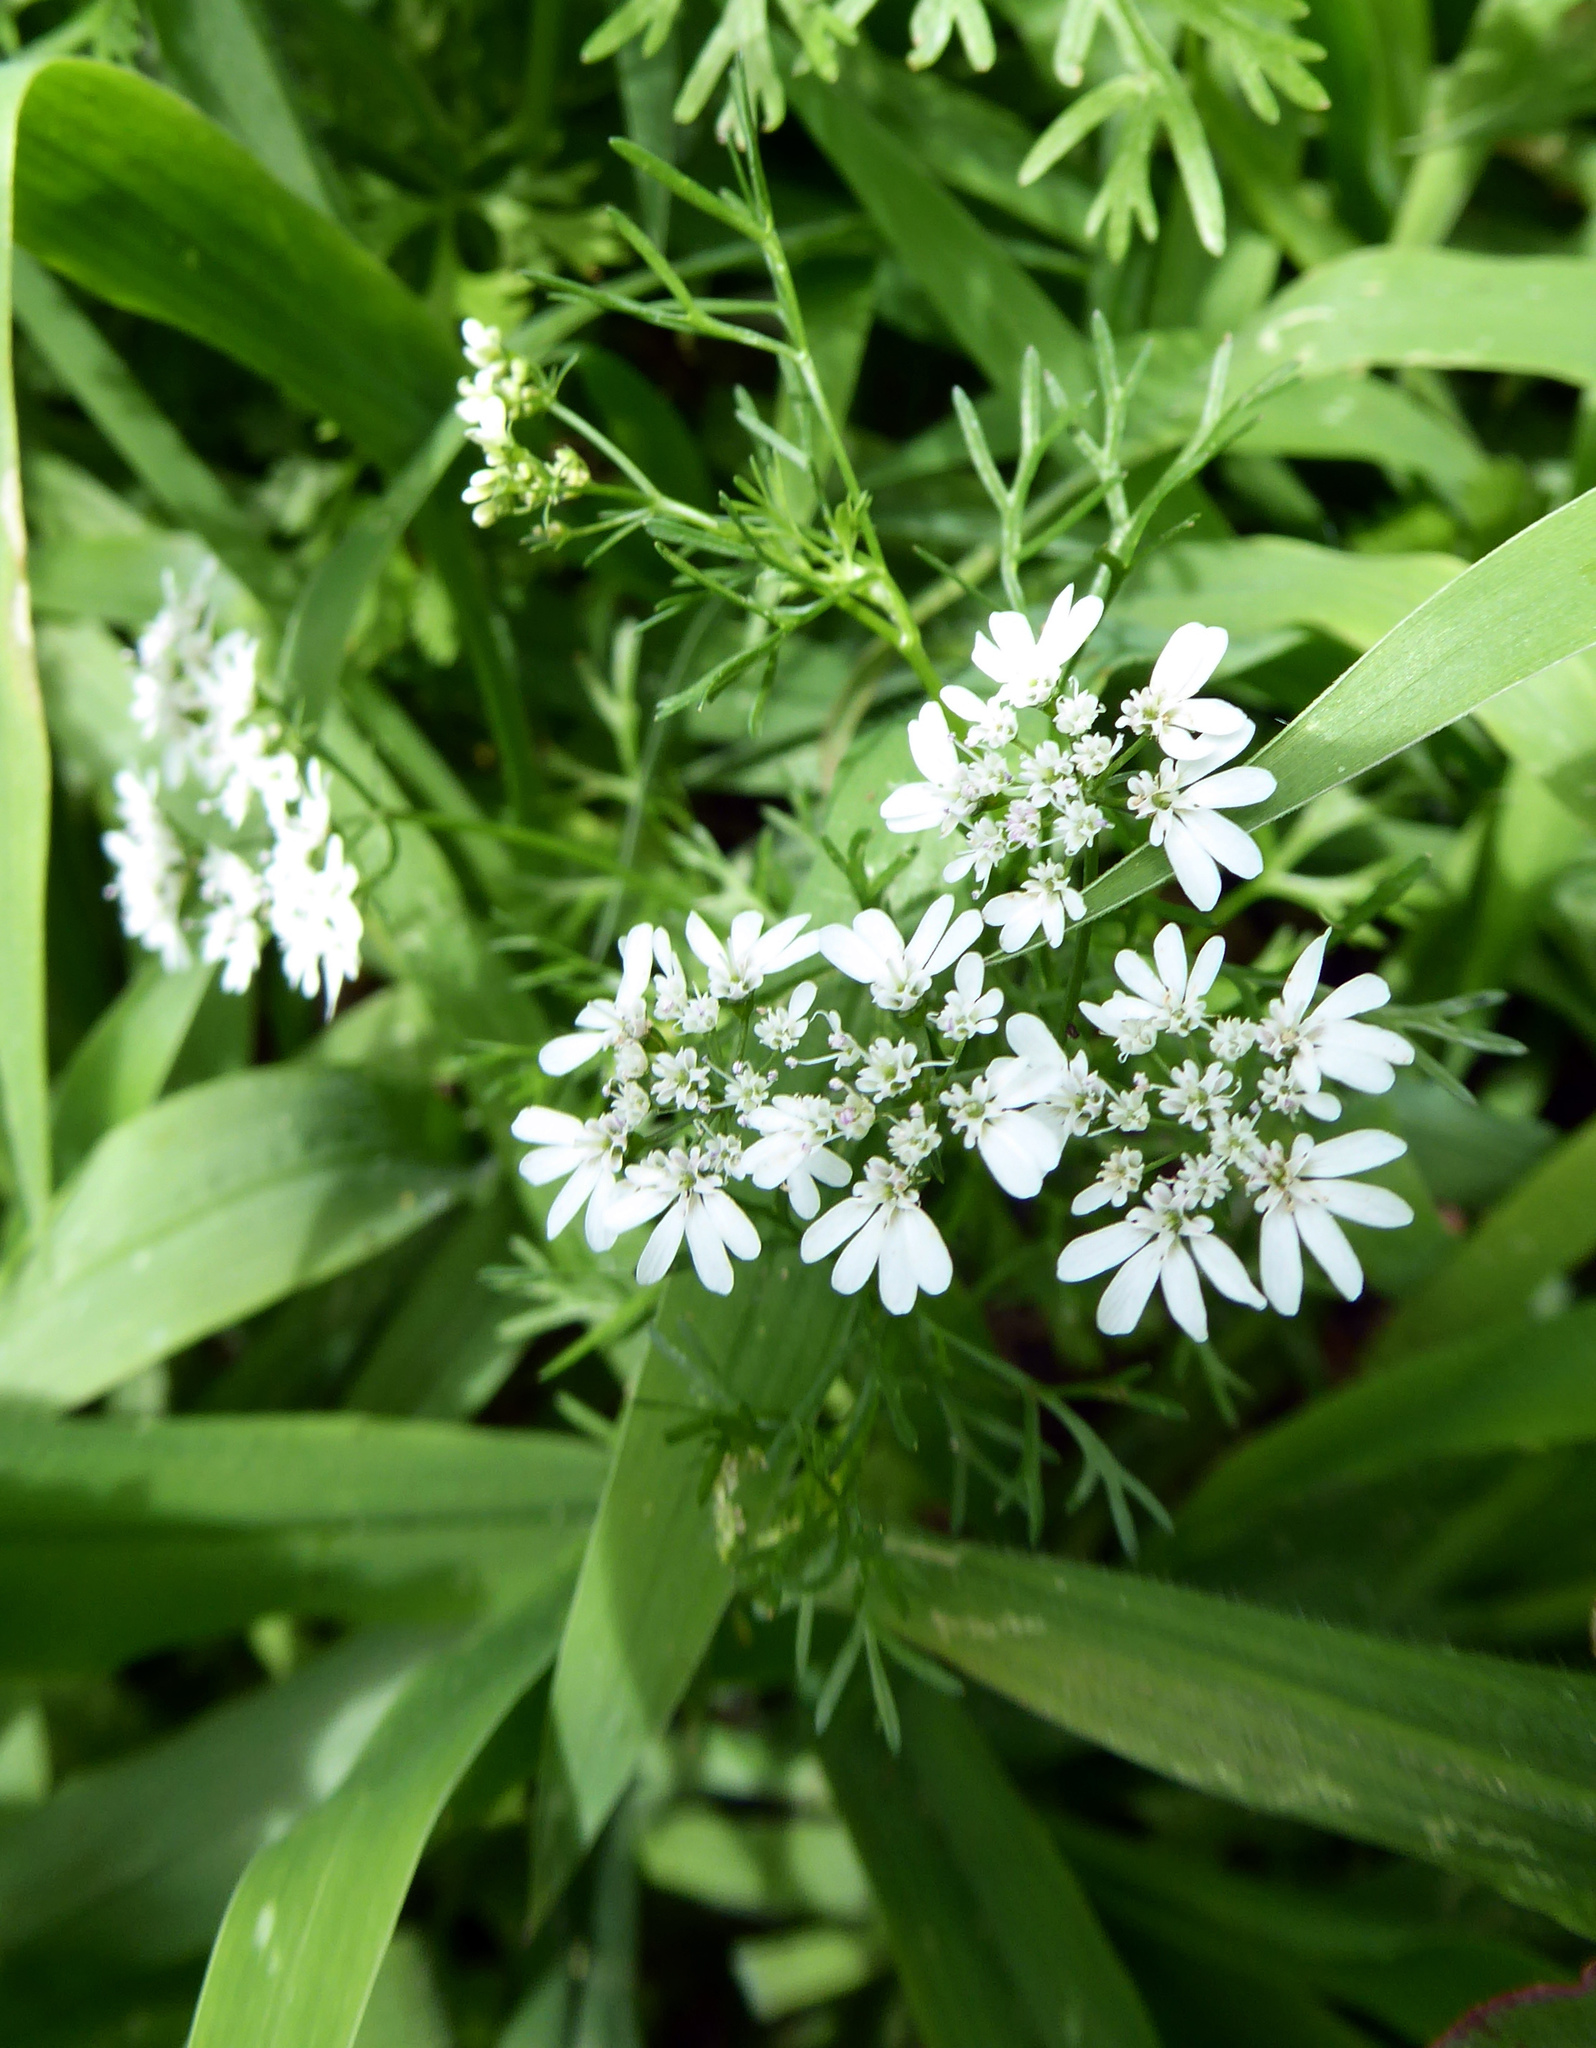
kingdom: Plantae
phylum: Tracheophyta
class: Magnoliopsida
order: Apiales
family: Apiaceae
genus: Coriandrum
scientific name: Coriandrum sativum
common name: Coriander
